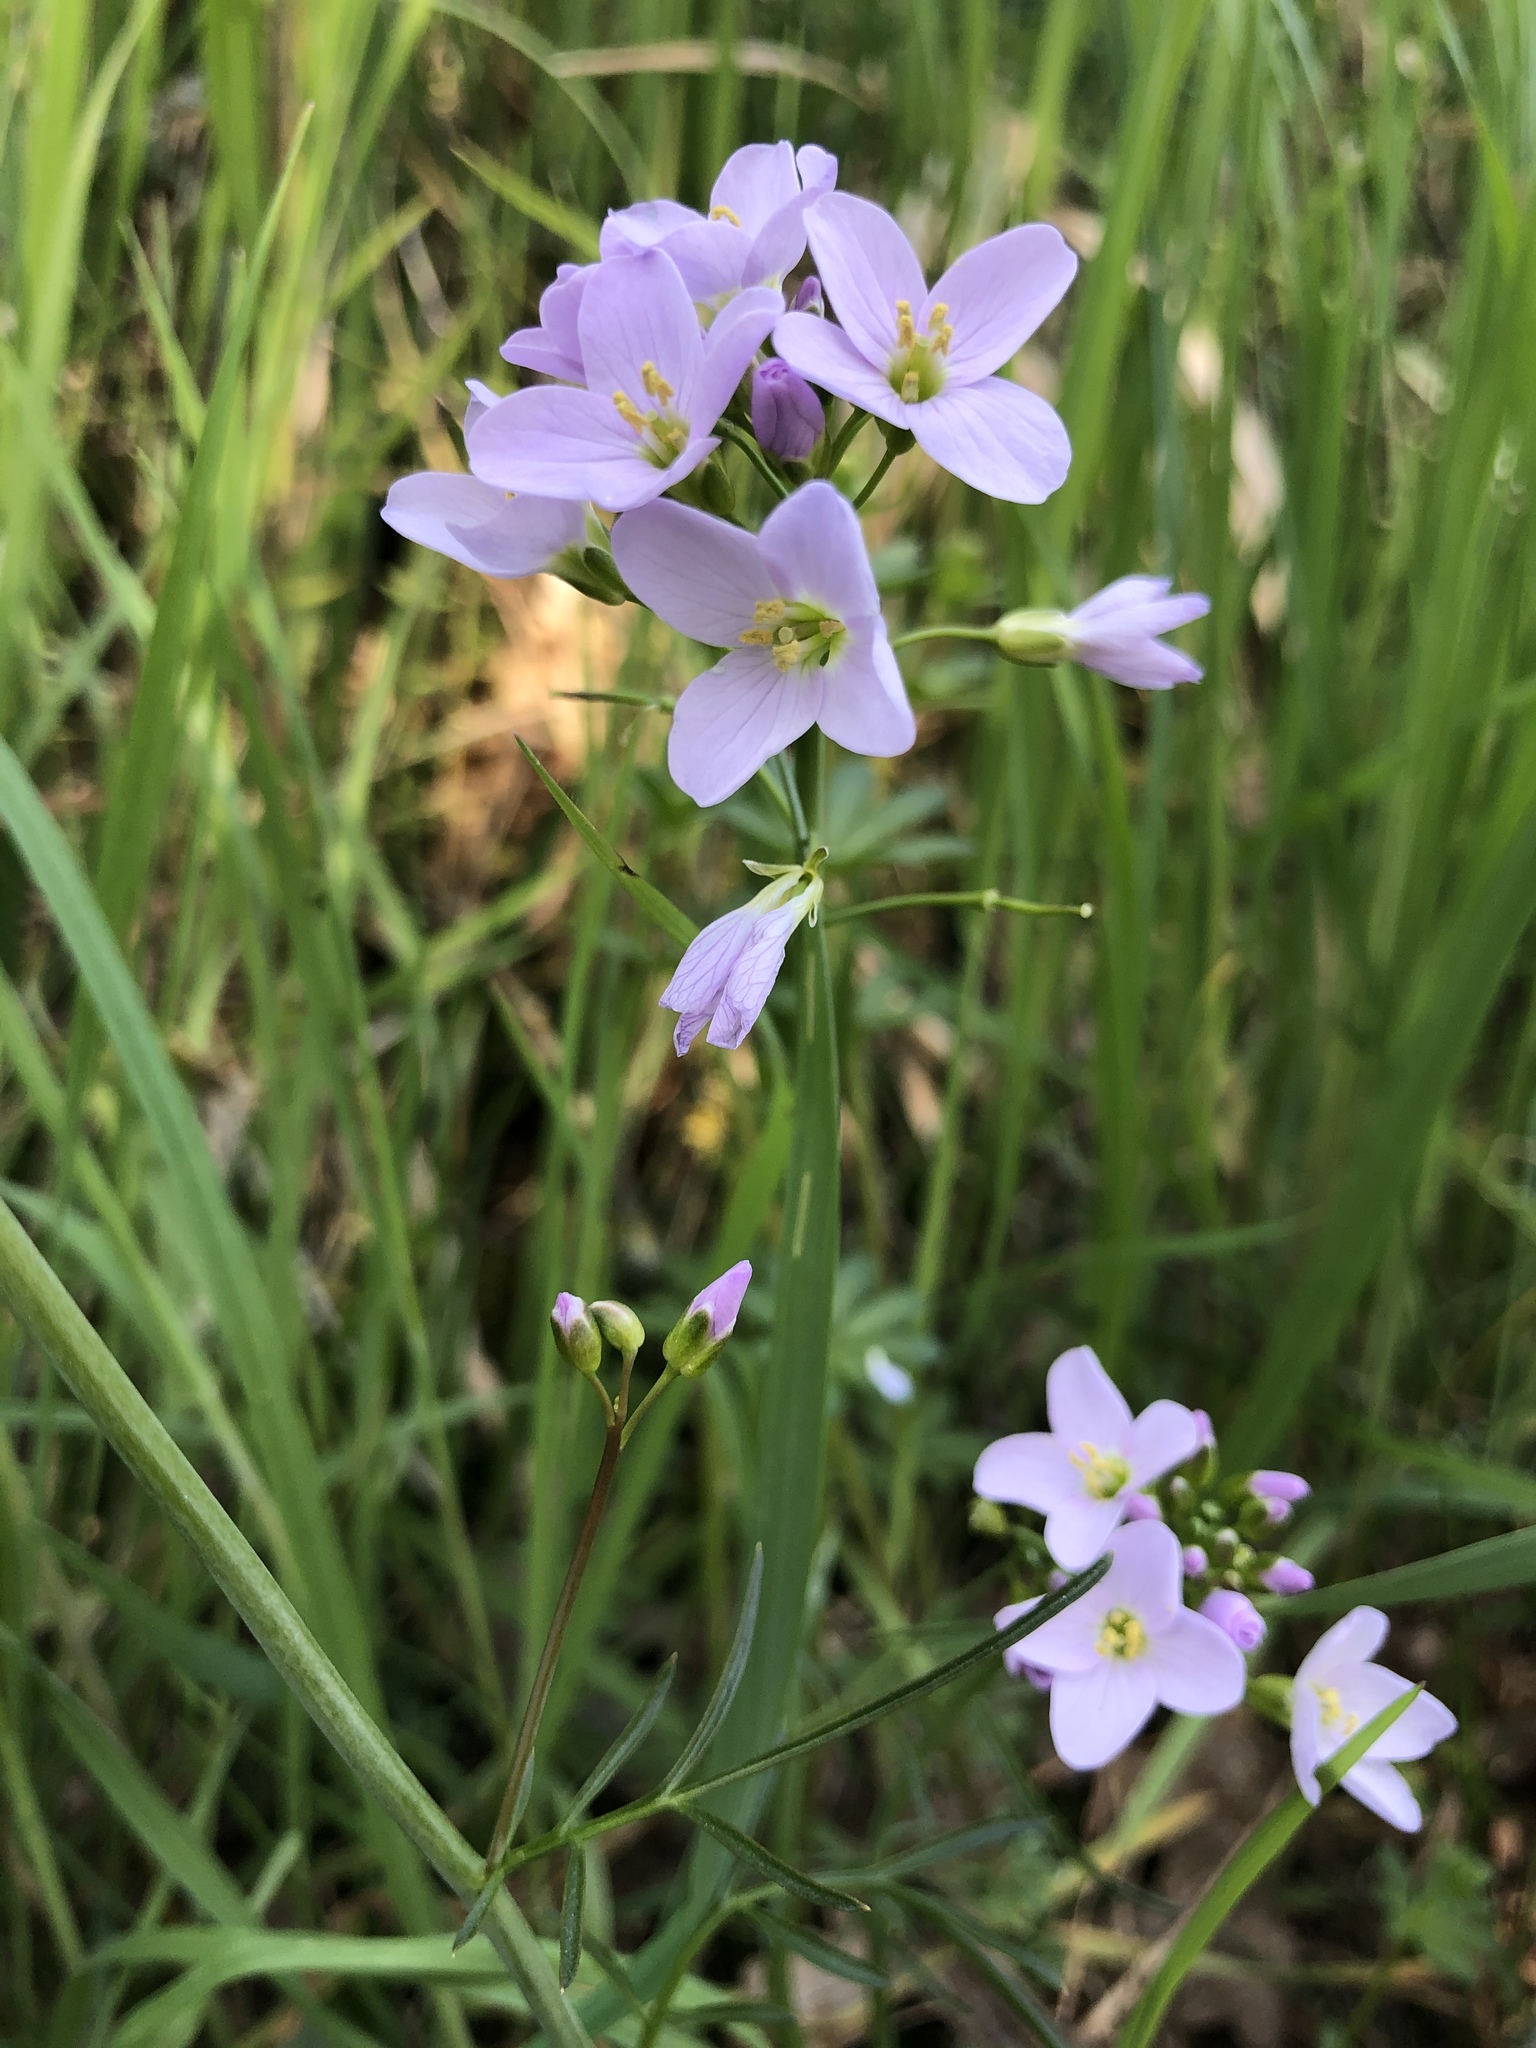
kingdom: Plantae
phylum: Tracheophyta
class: Magnoliopsida
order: Brassicales
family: Brassicaceae
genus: Cardamine
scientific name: Cardamine pratensis
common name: Cuckoo flower
